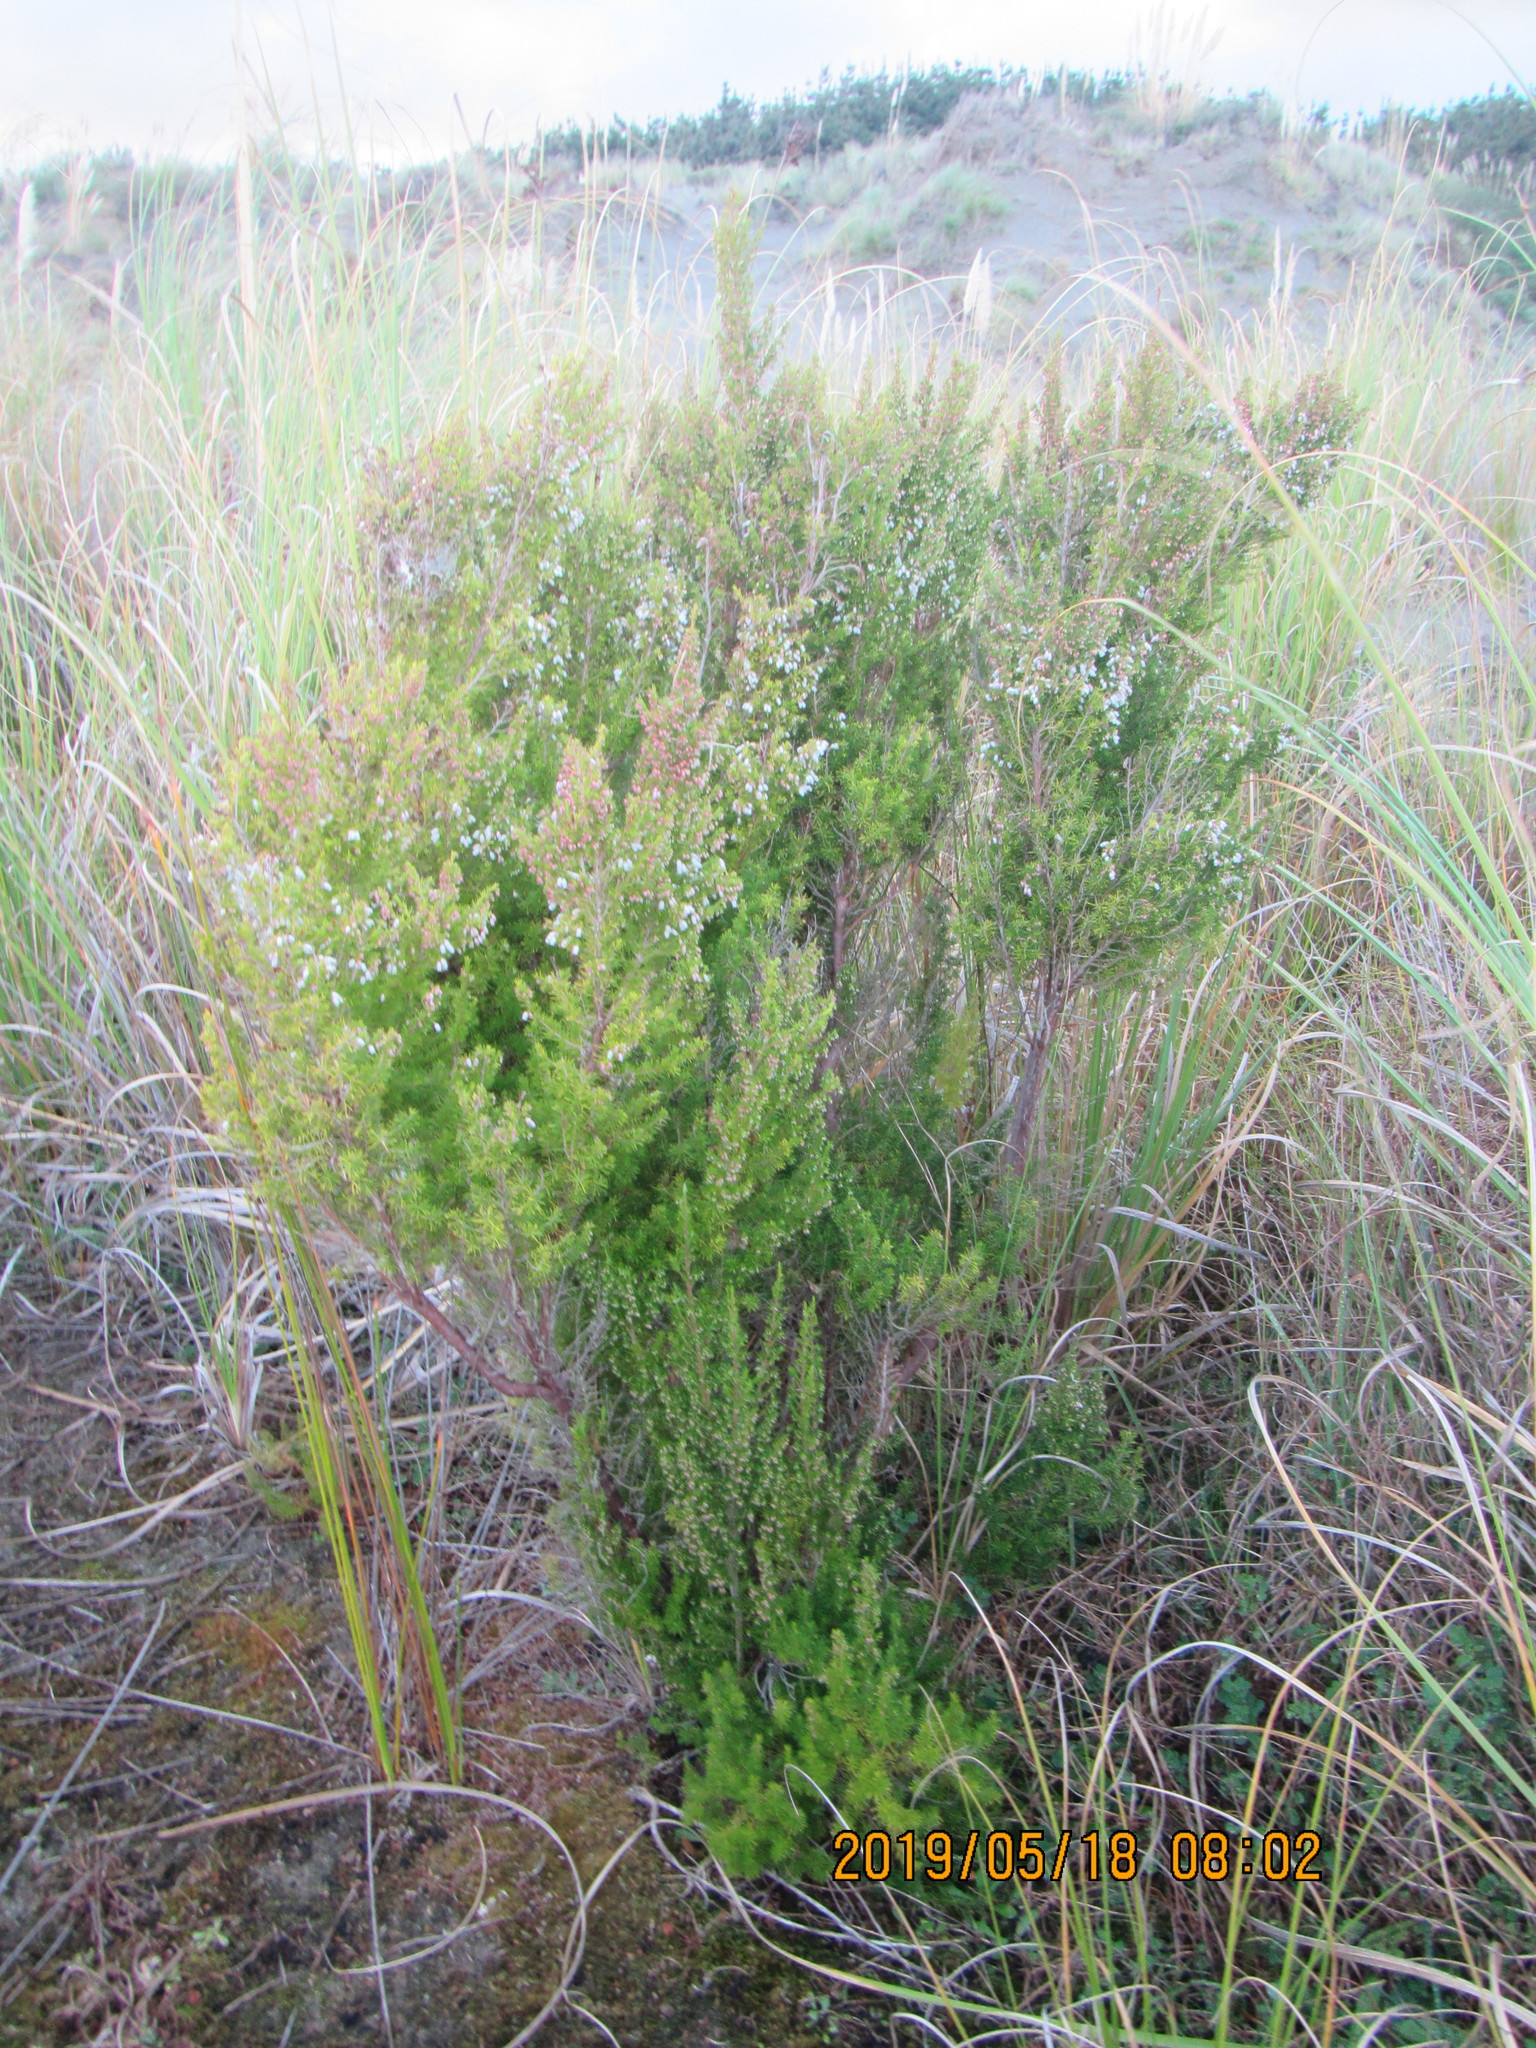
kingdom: Plantae
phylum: Tracheophyta
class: Magnoliopsida
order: Ericales
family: Ericaceae
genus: Erica
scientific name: Erica lusitanica
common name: Spanish heath
